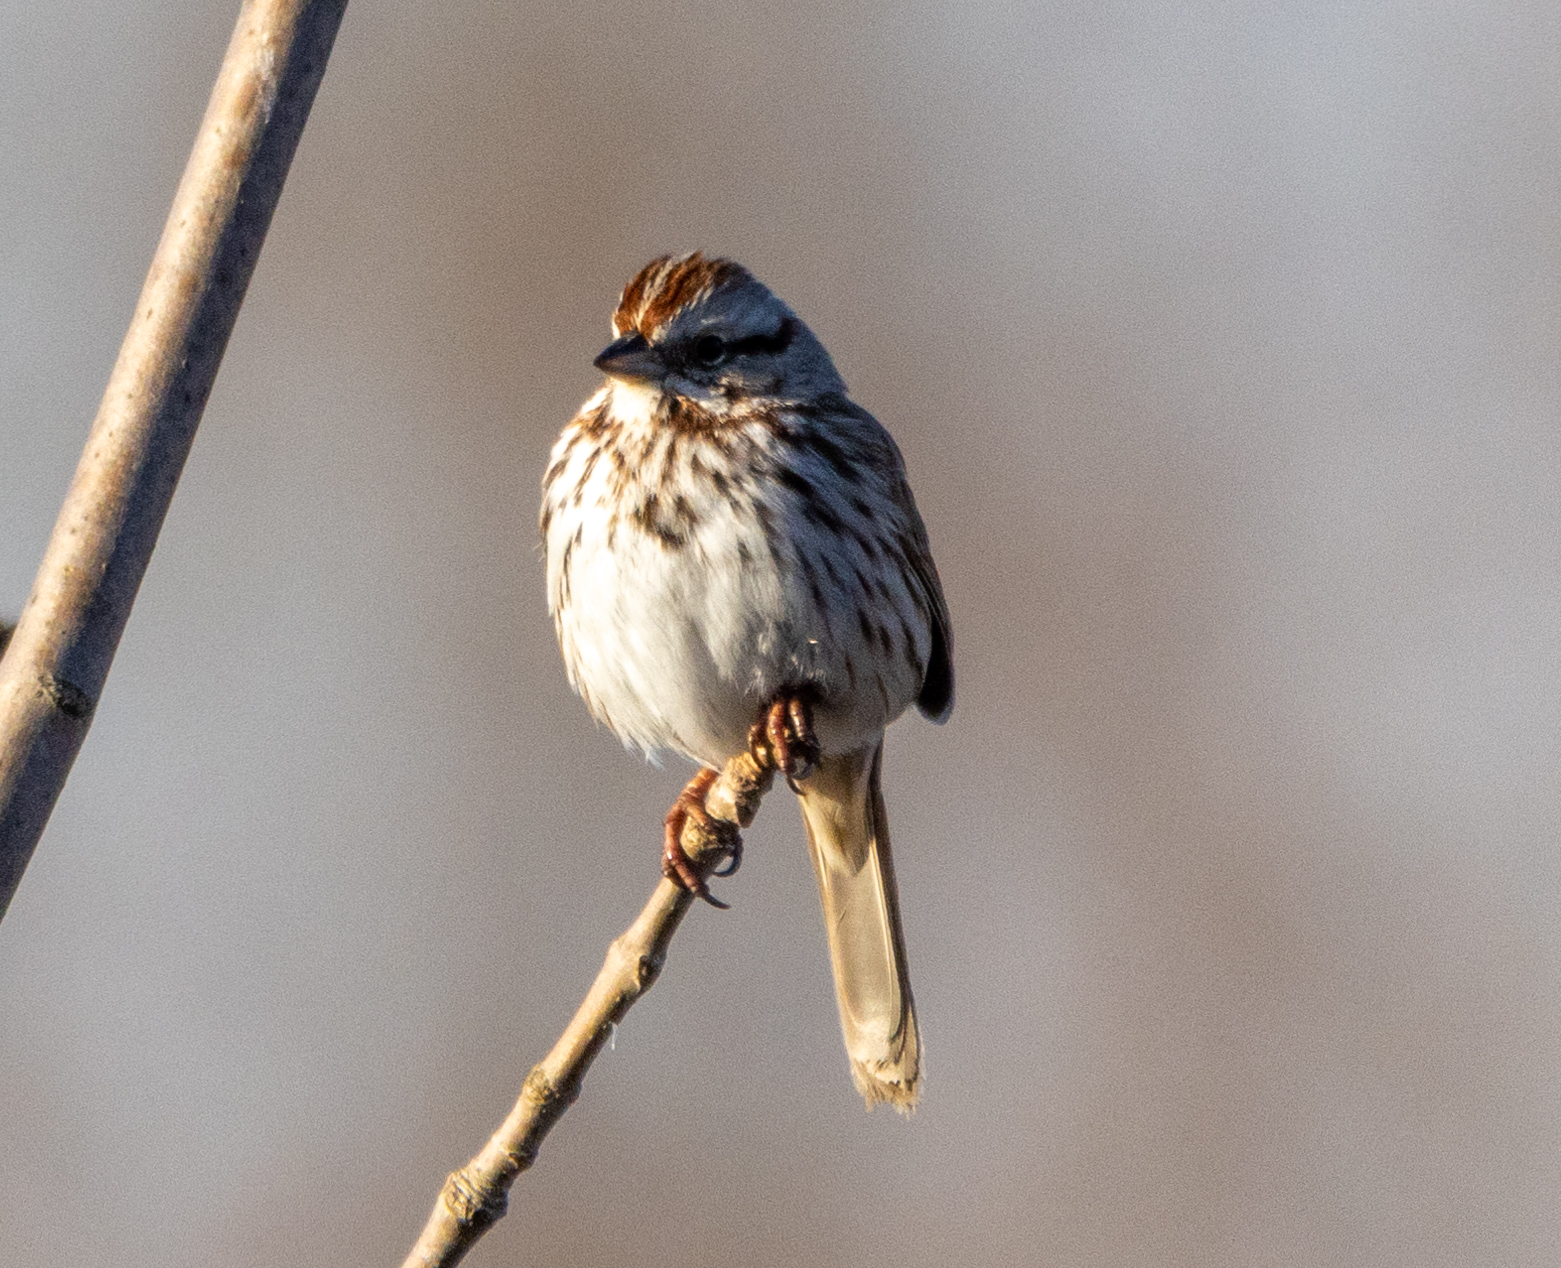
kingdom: Animalia
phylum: Chordata
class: Aves
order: Passeriformes
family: Passerellidae
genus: Melospiza
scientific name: Melospiza melodia
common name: Song sparrow
